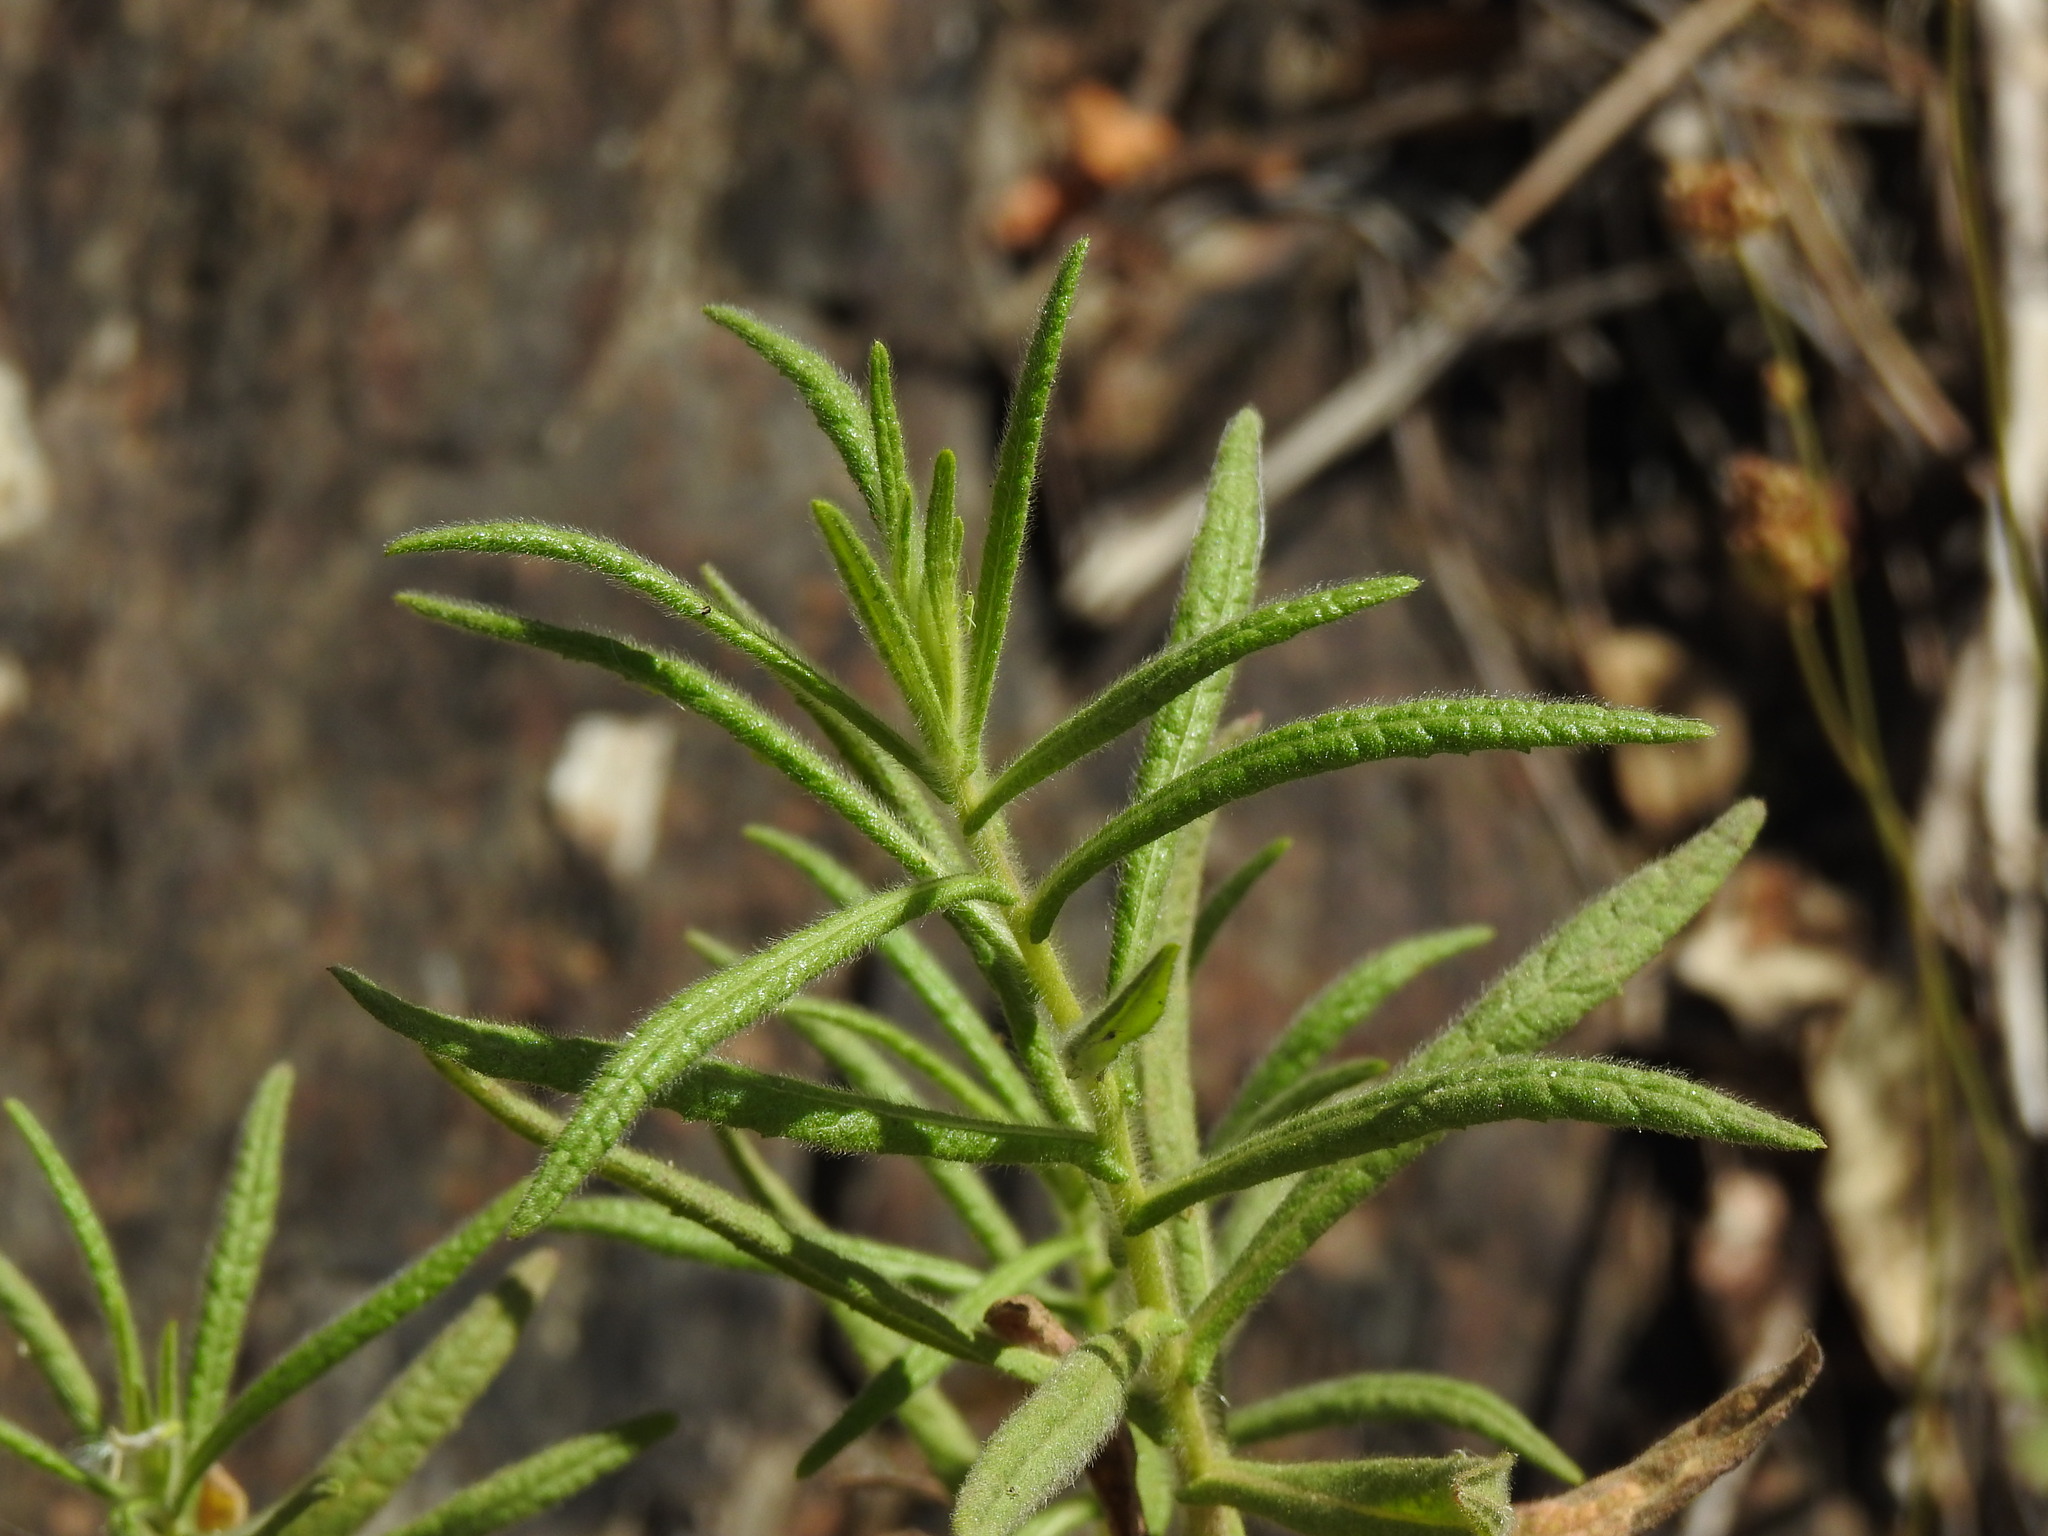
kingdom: Plantae
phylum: Tracheophyta
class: Magnoliopsida
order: Asterales
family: Asteraceae
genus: Dittrichia
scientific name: Dittrichia viscosa
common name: Woody fleabane
